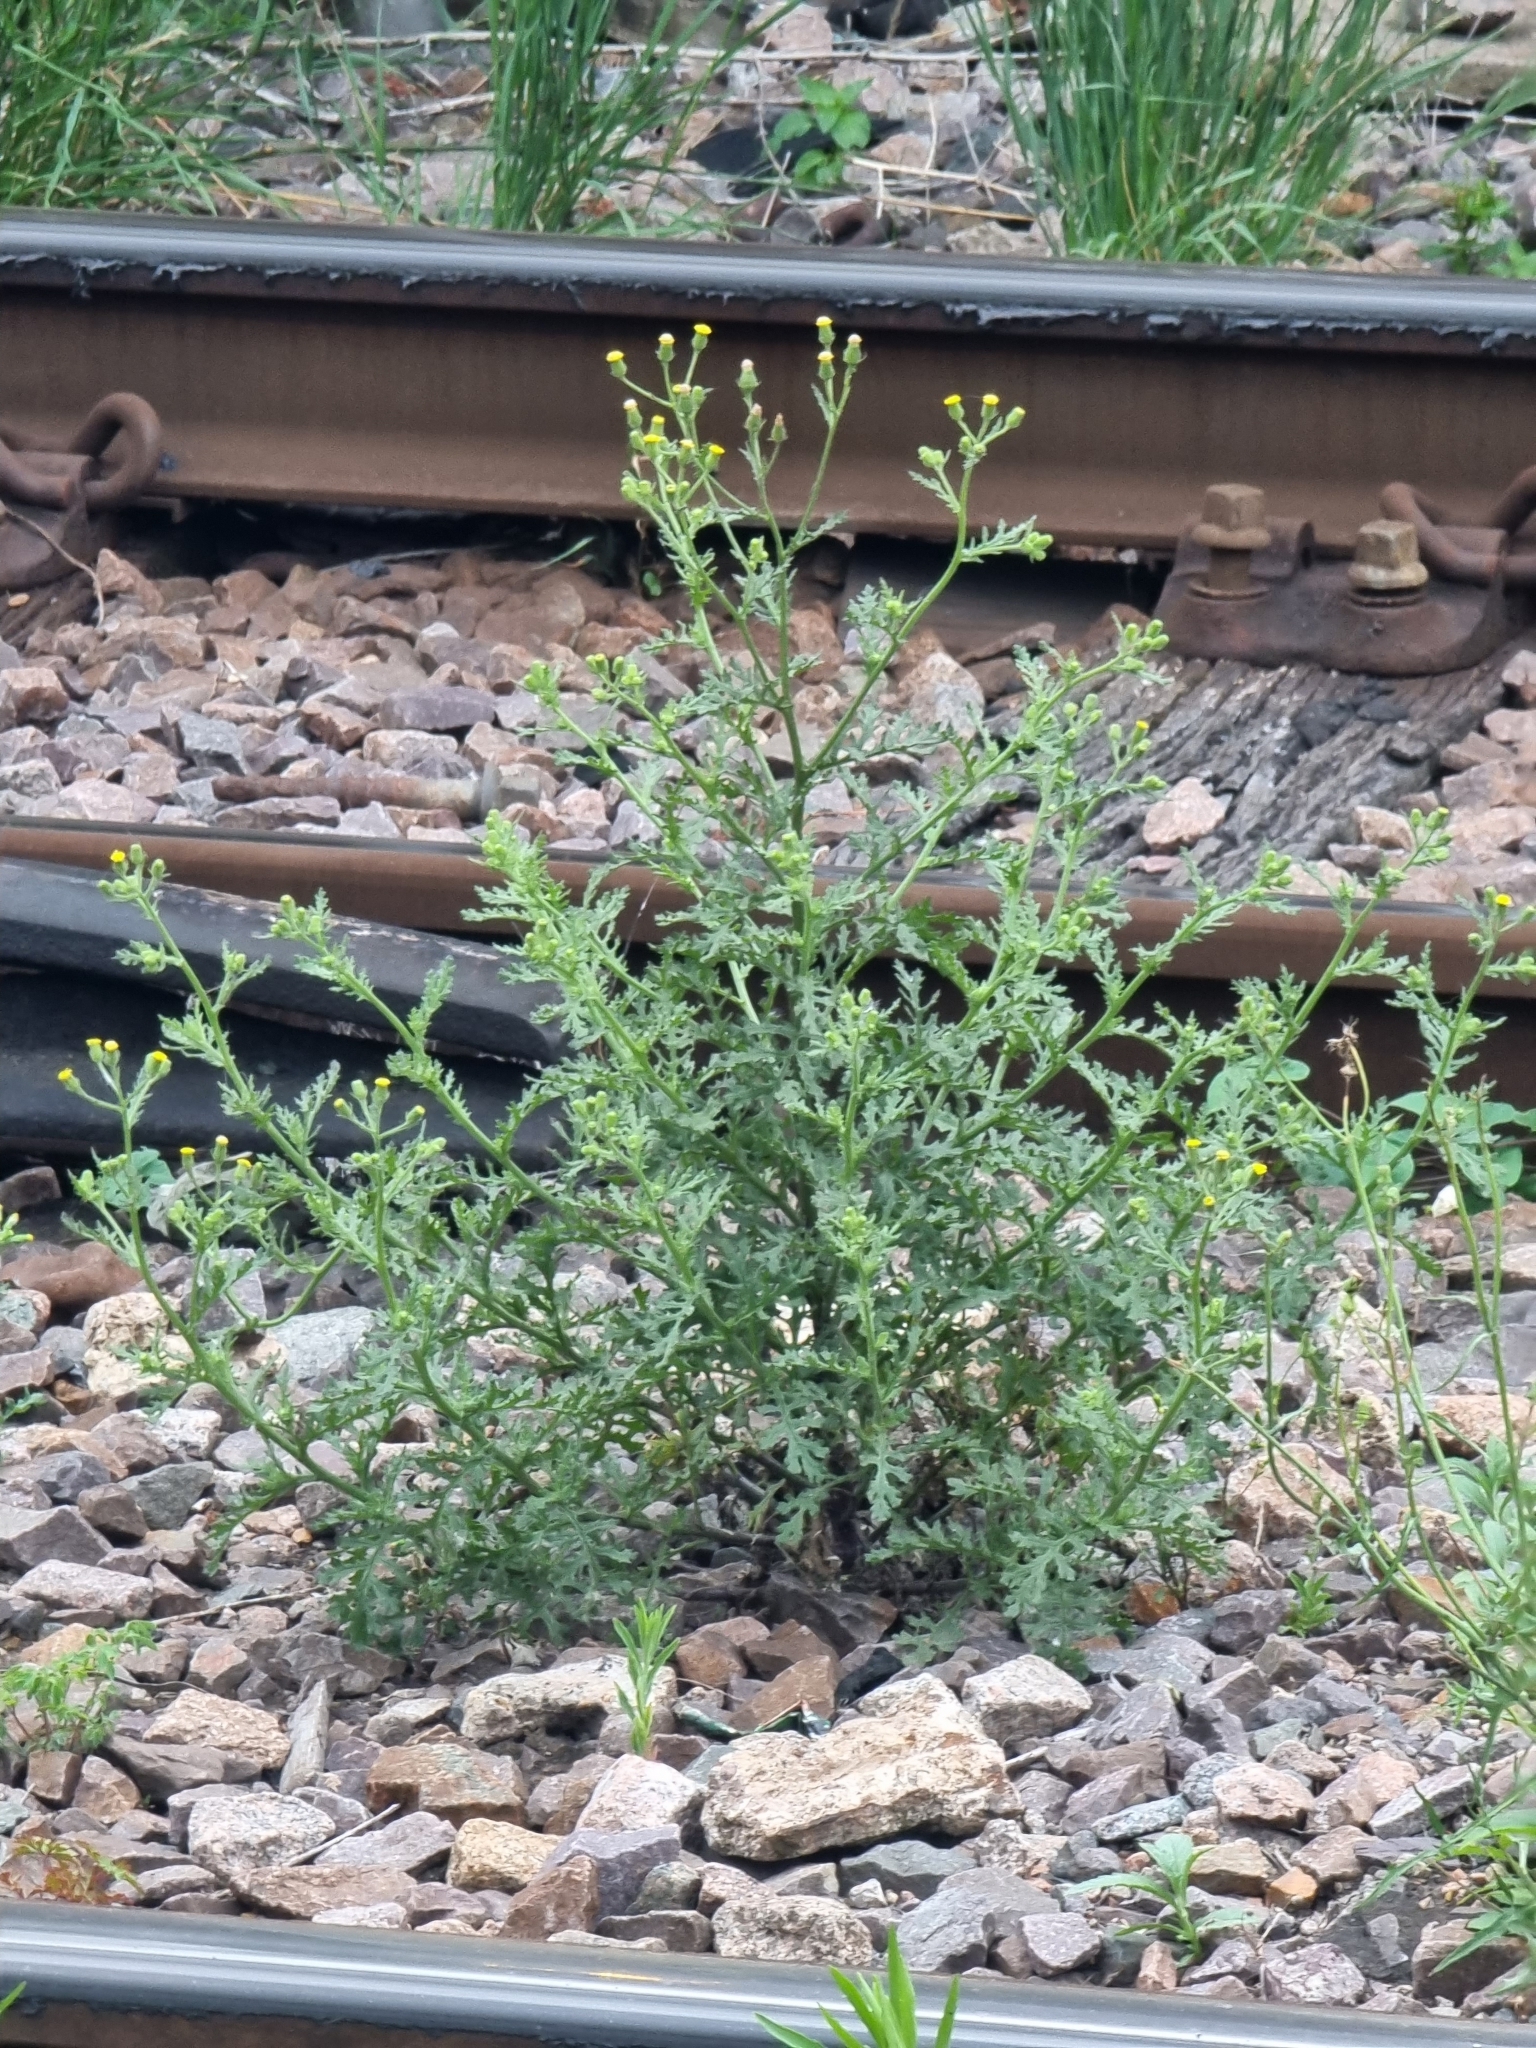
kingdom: Plantae
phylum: Tracheophyta
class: Magnoliopsida
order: Asterales
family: Asteraceae
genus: Senecio
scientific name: Senecio viscosus
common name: Sticky groundsel
